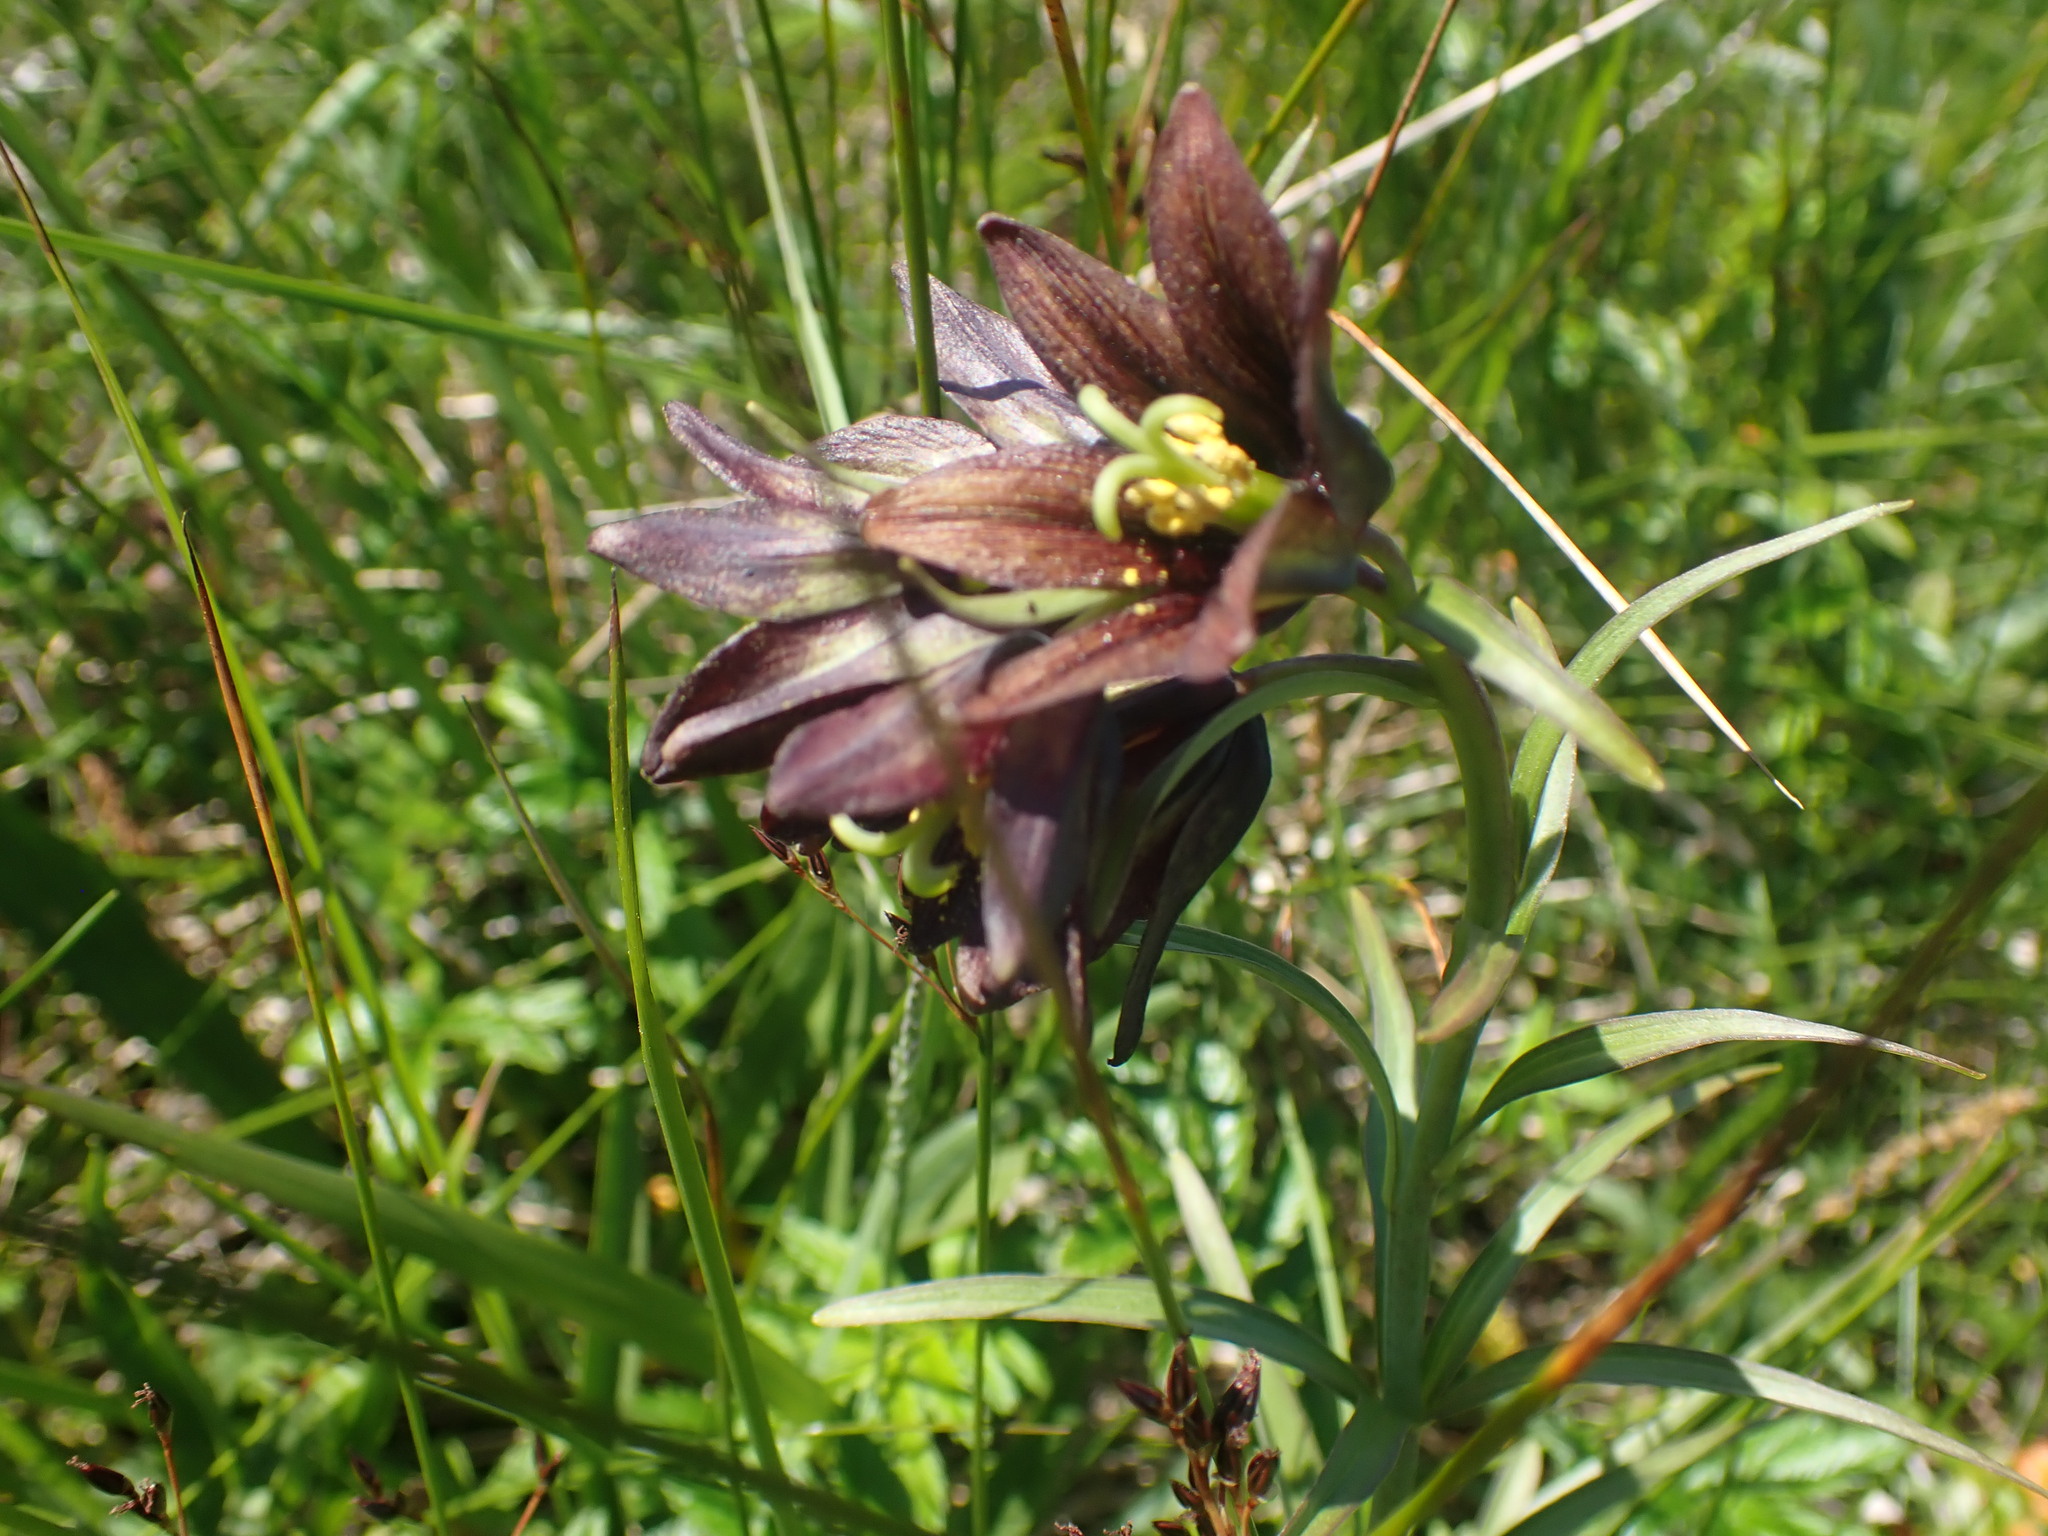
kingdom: Plantae
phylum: Tracheophyta
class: Liliopsida
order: Liliales
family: Liliaceae
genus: Fritillaria
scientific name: Fritillaria camschatcensis
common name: Kamchatka fritillary
